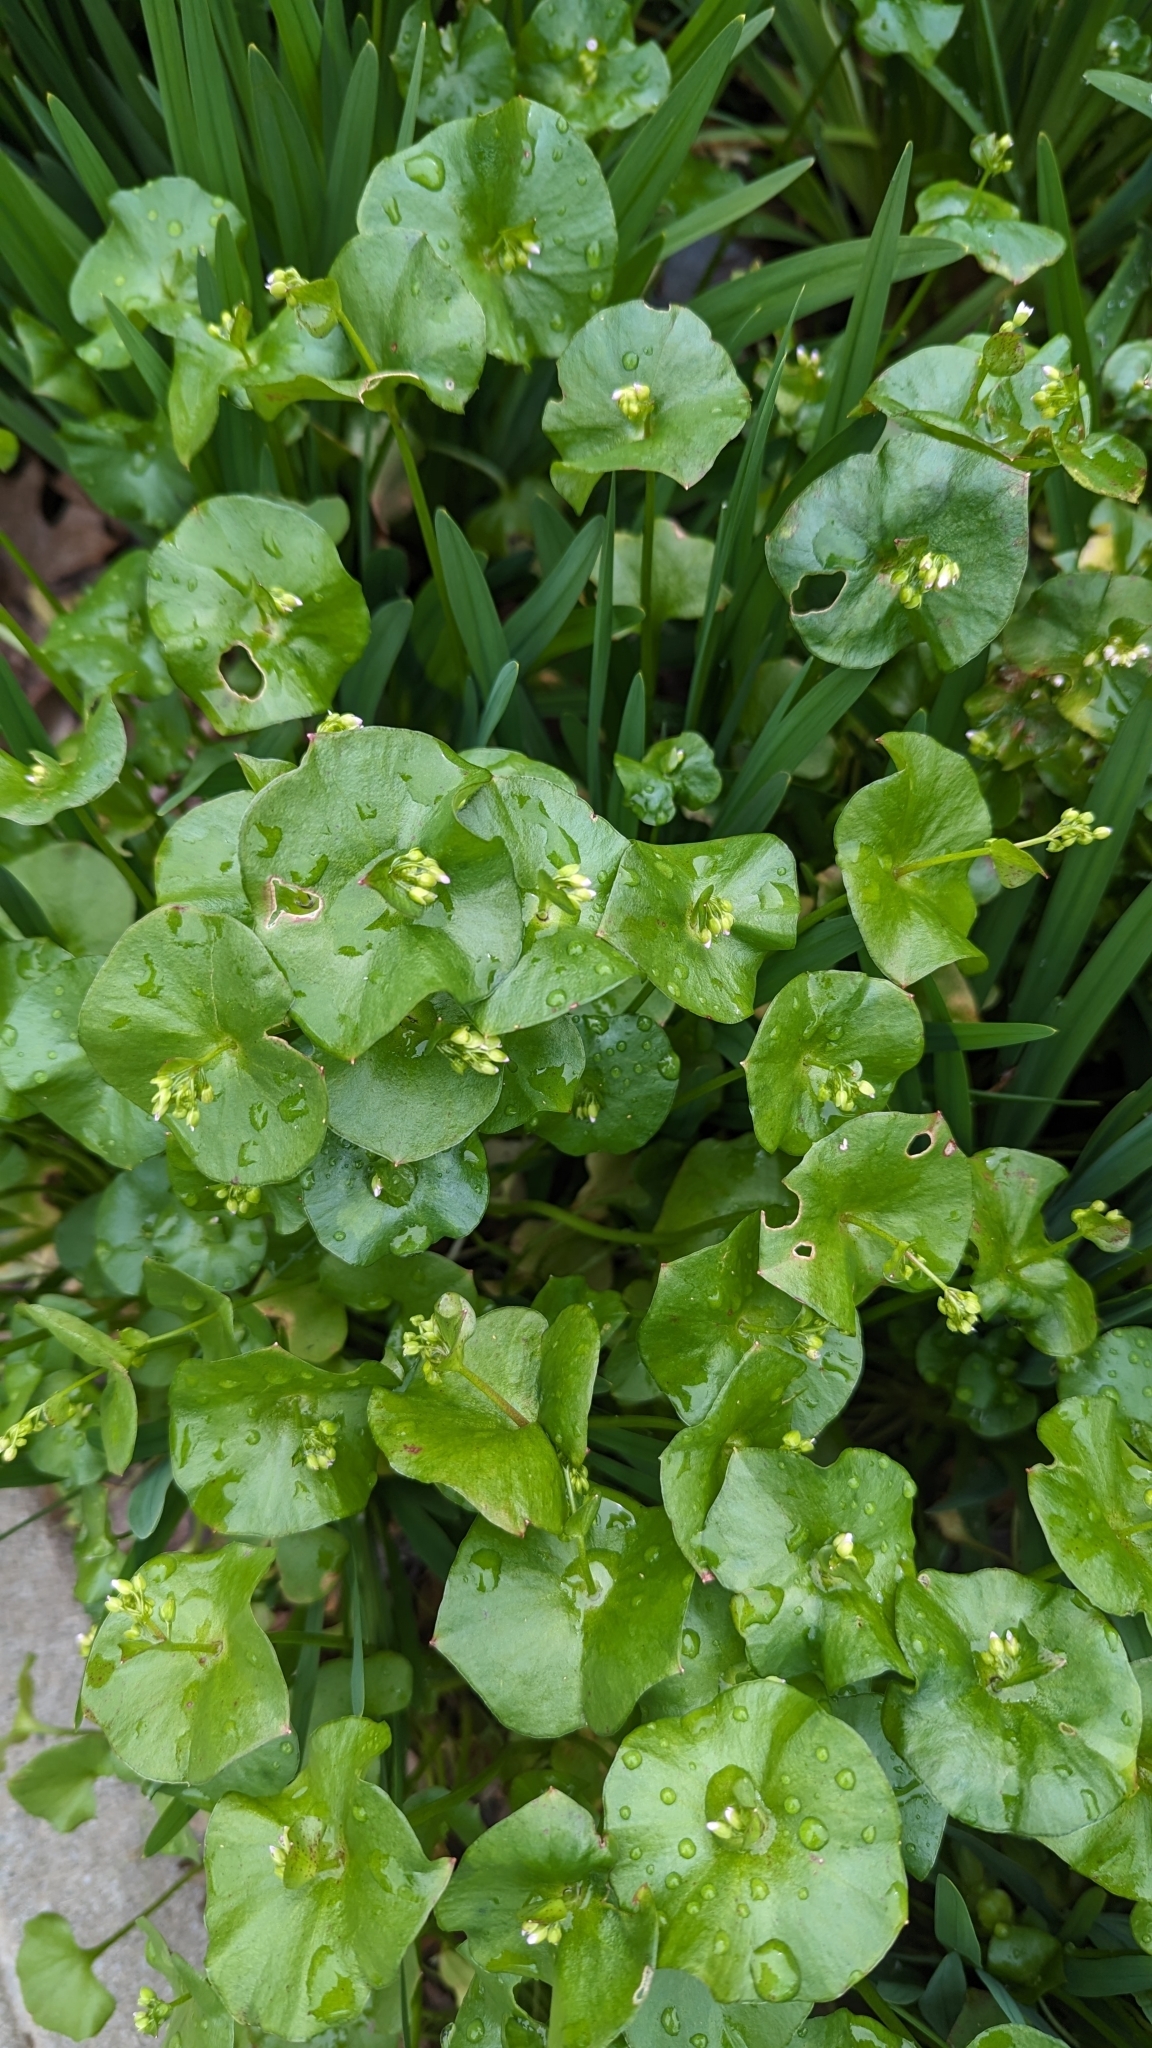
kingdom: Plantae
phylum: Tracheophyta
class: Magnoliopsida
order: Caryophyllales
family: Montiaceae
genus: Claytonia
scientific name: Claytonia perfoliata
